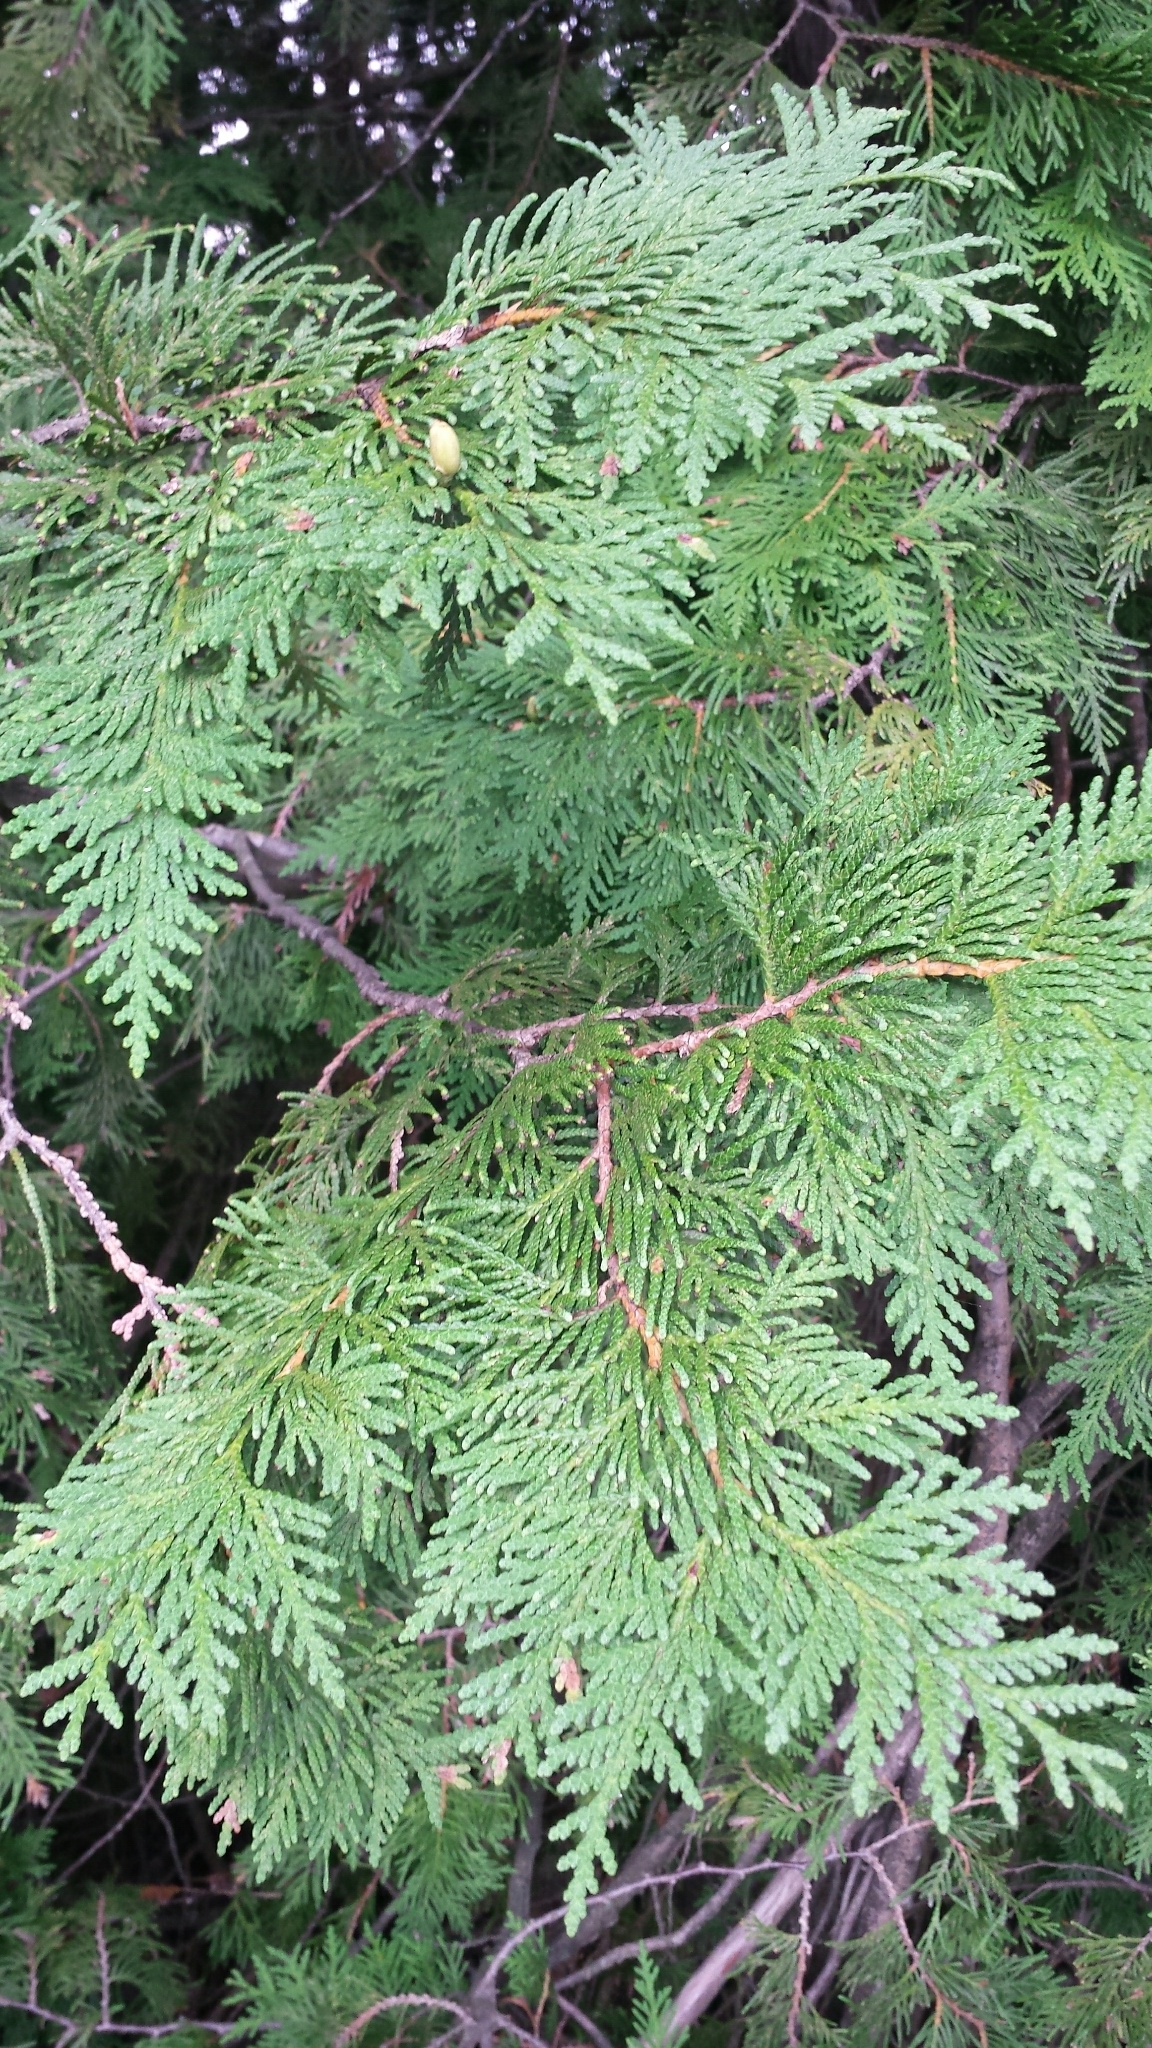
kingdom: Plantae
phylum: Tracheophyta
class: Pinopsida
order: Pinales
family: Cupressaceae
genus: Thuja
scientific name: Thuja occidentalis
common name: Northern white-cedar
